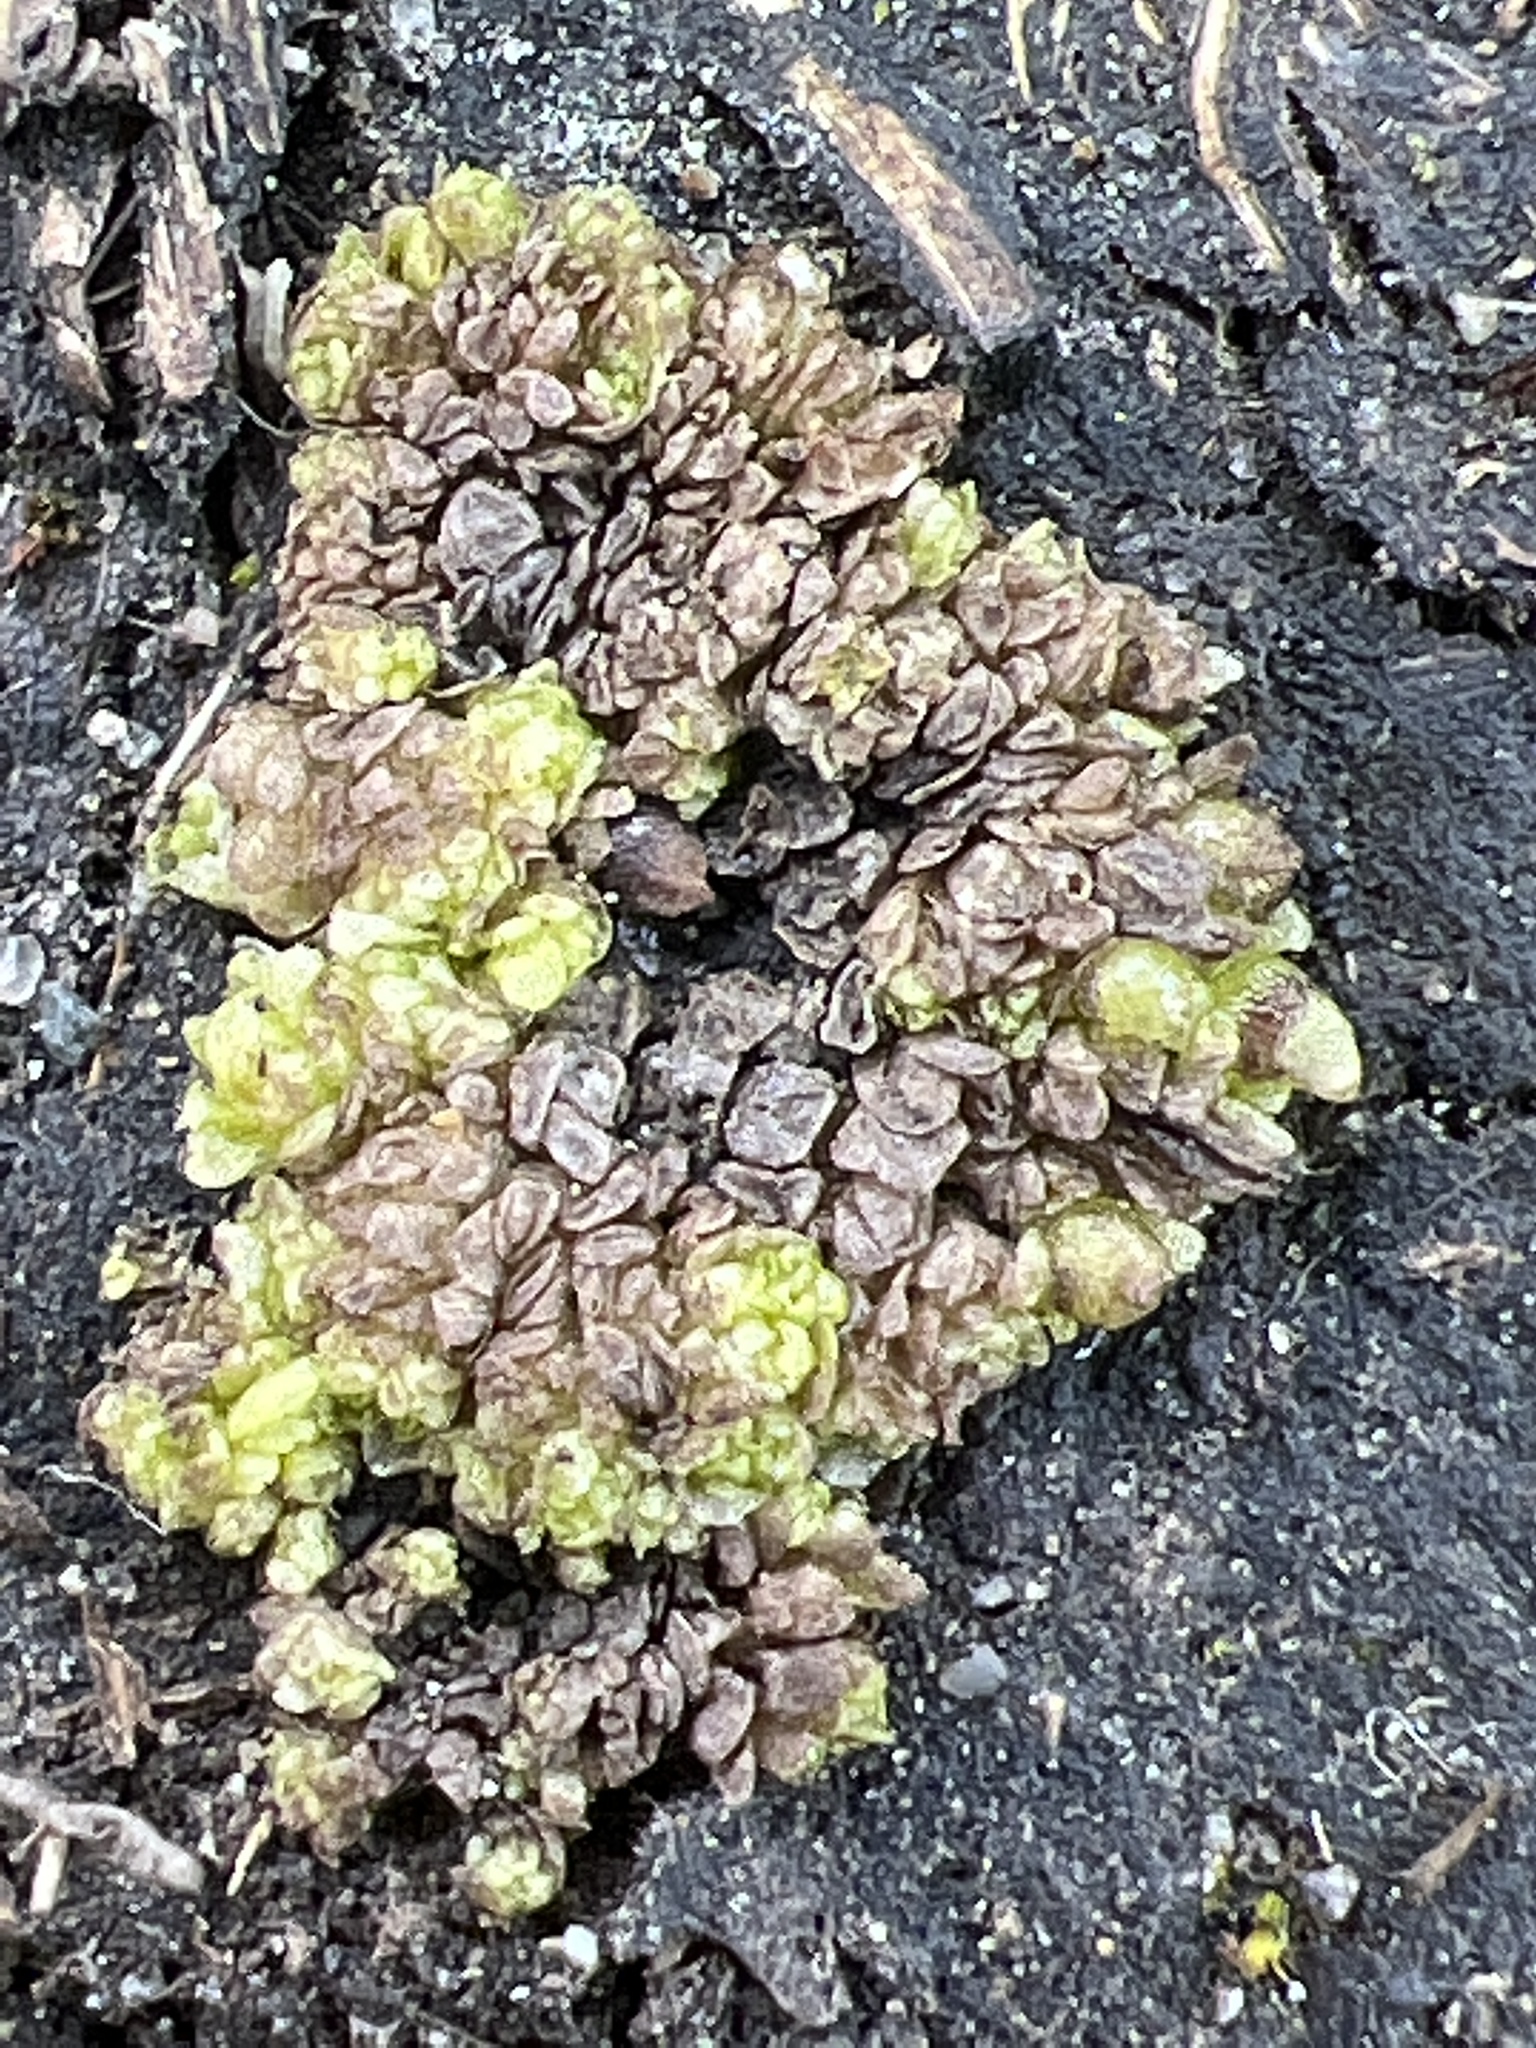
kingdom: Plantae
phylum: Marchantiophyta
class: Marchantiopsida
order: Sphaerocarpales
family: Sphaerocarpaceae
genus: Sphaerocarpos
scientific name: Sphaerocarpos texanus
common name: Texas balloonwort
